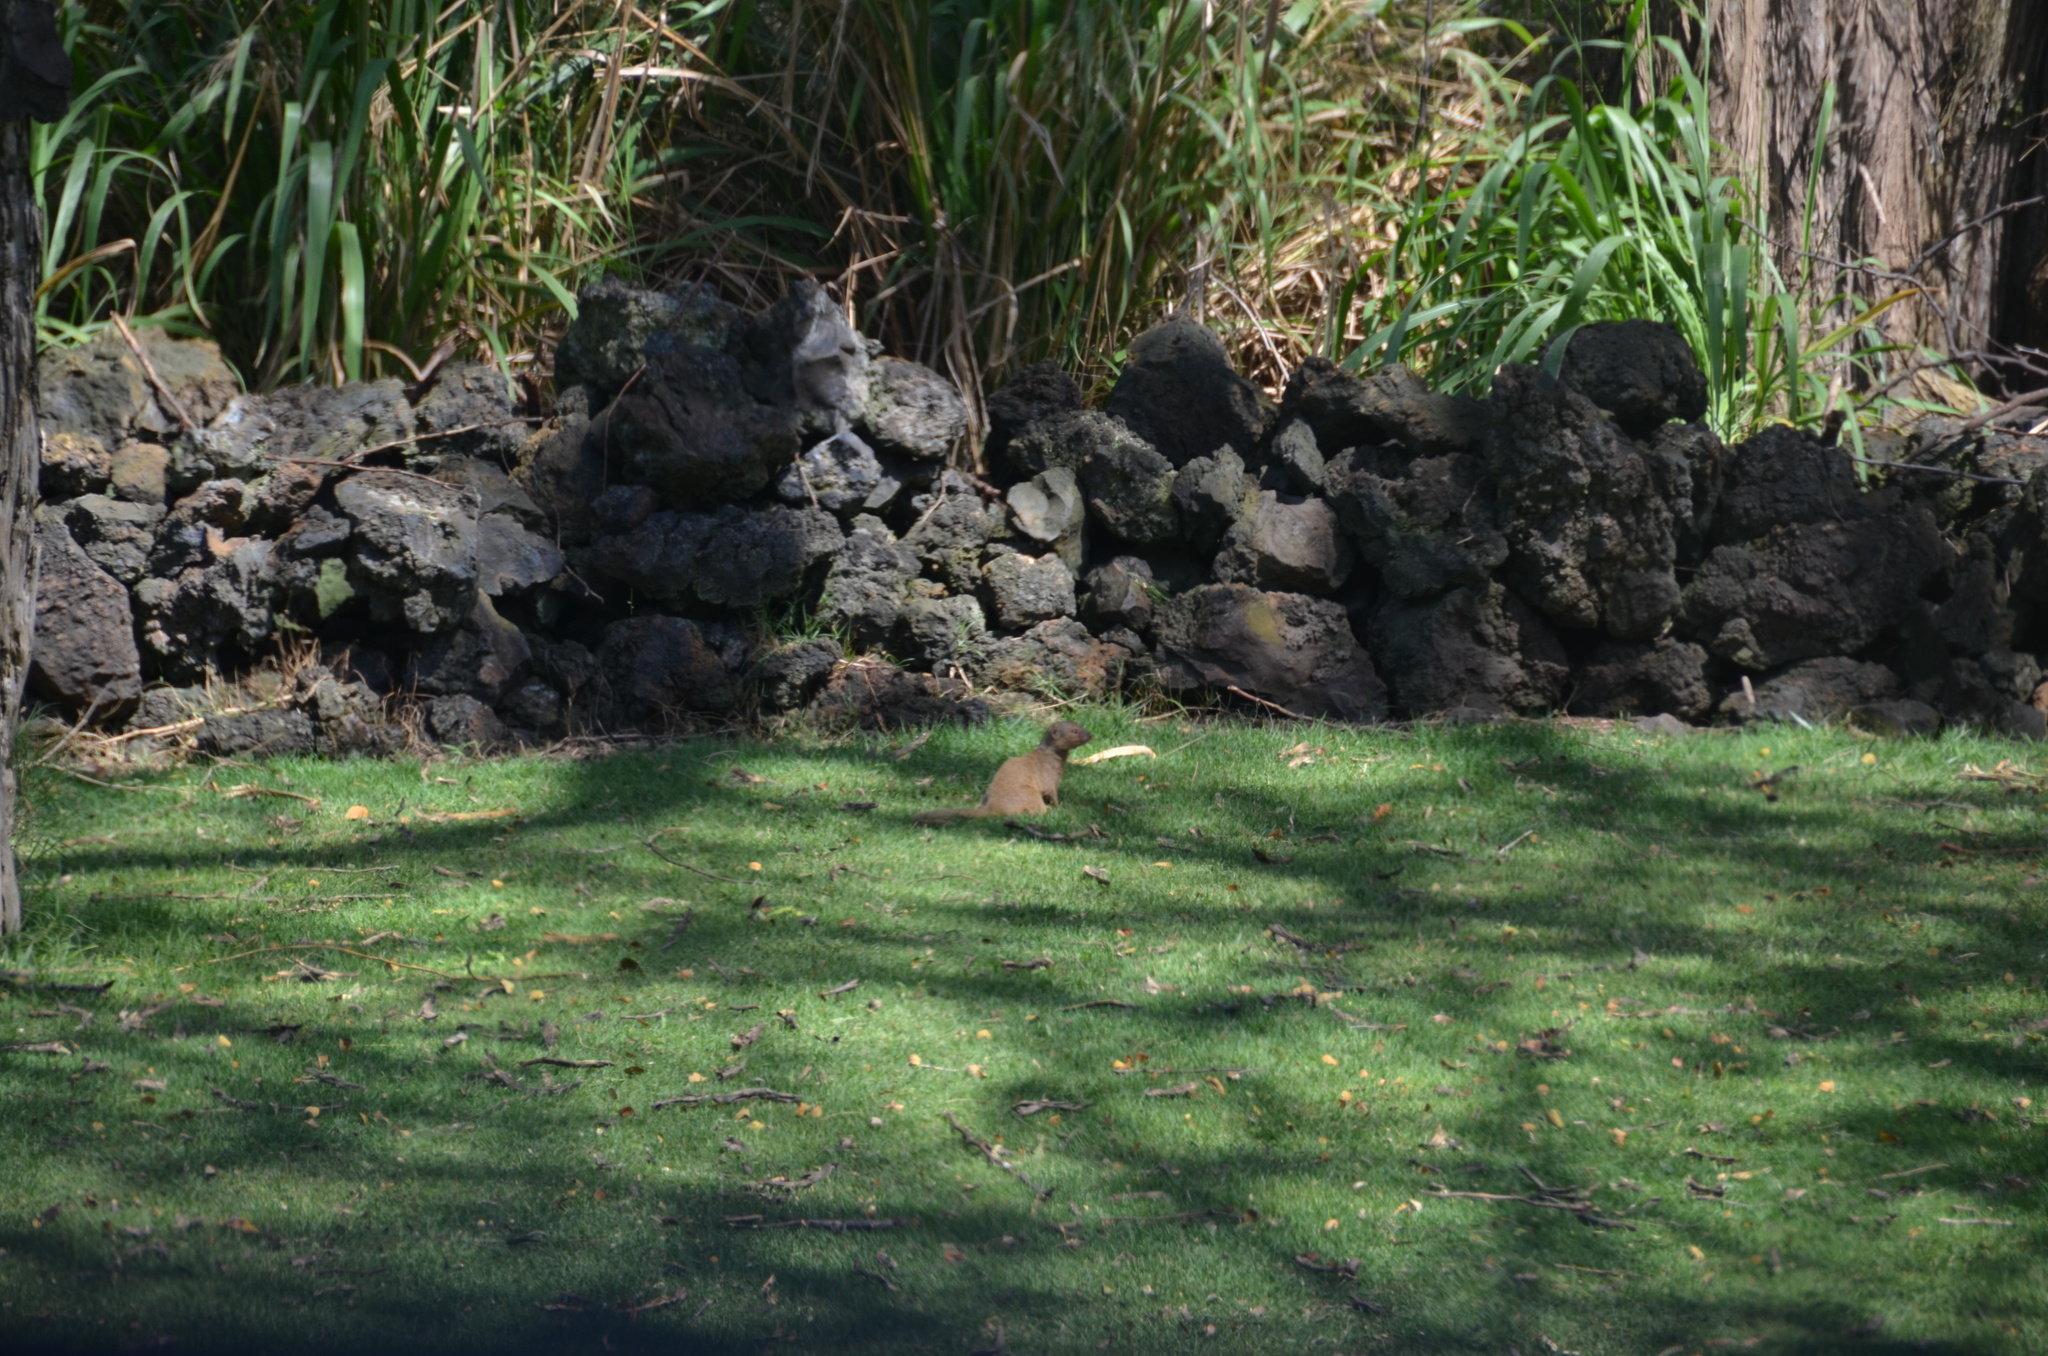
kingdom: Animalia
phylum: Chordata
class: Mammalia
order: Carnivora
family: Herpestidae
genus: Herpestes
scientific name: Herpestes javanicus
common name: Small asian mongoose
